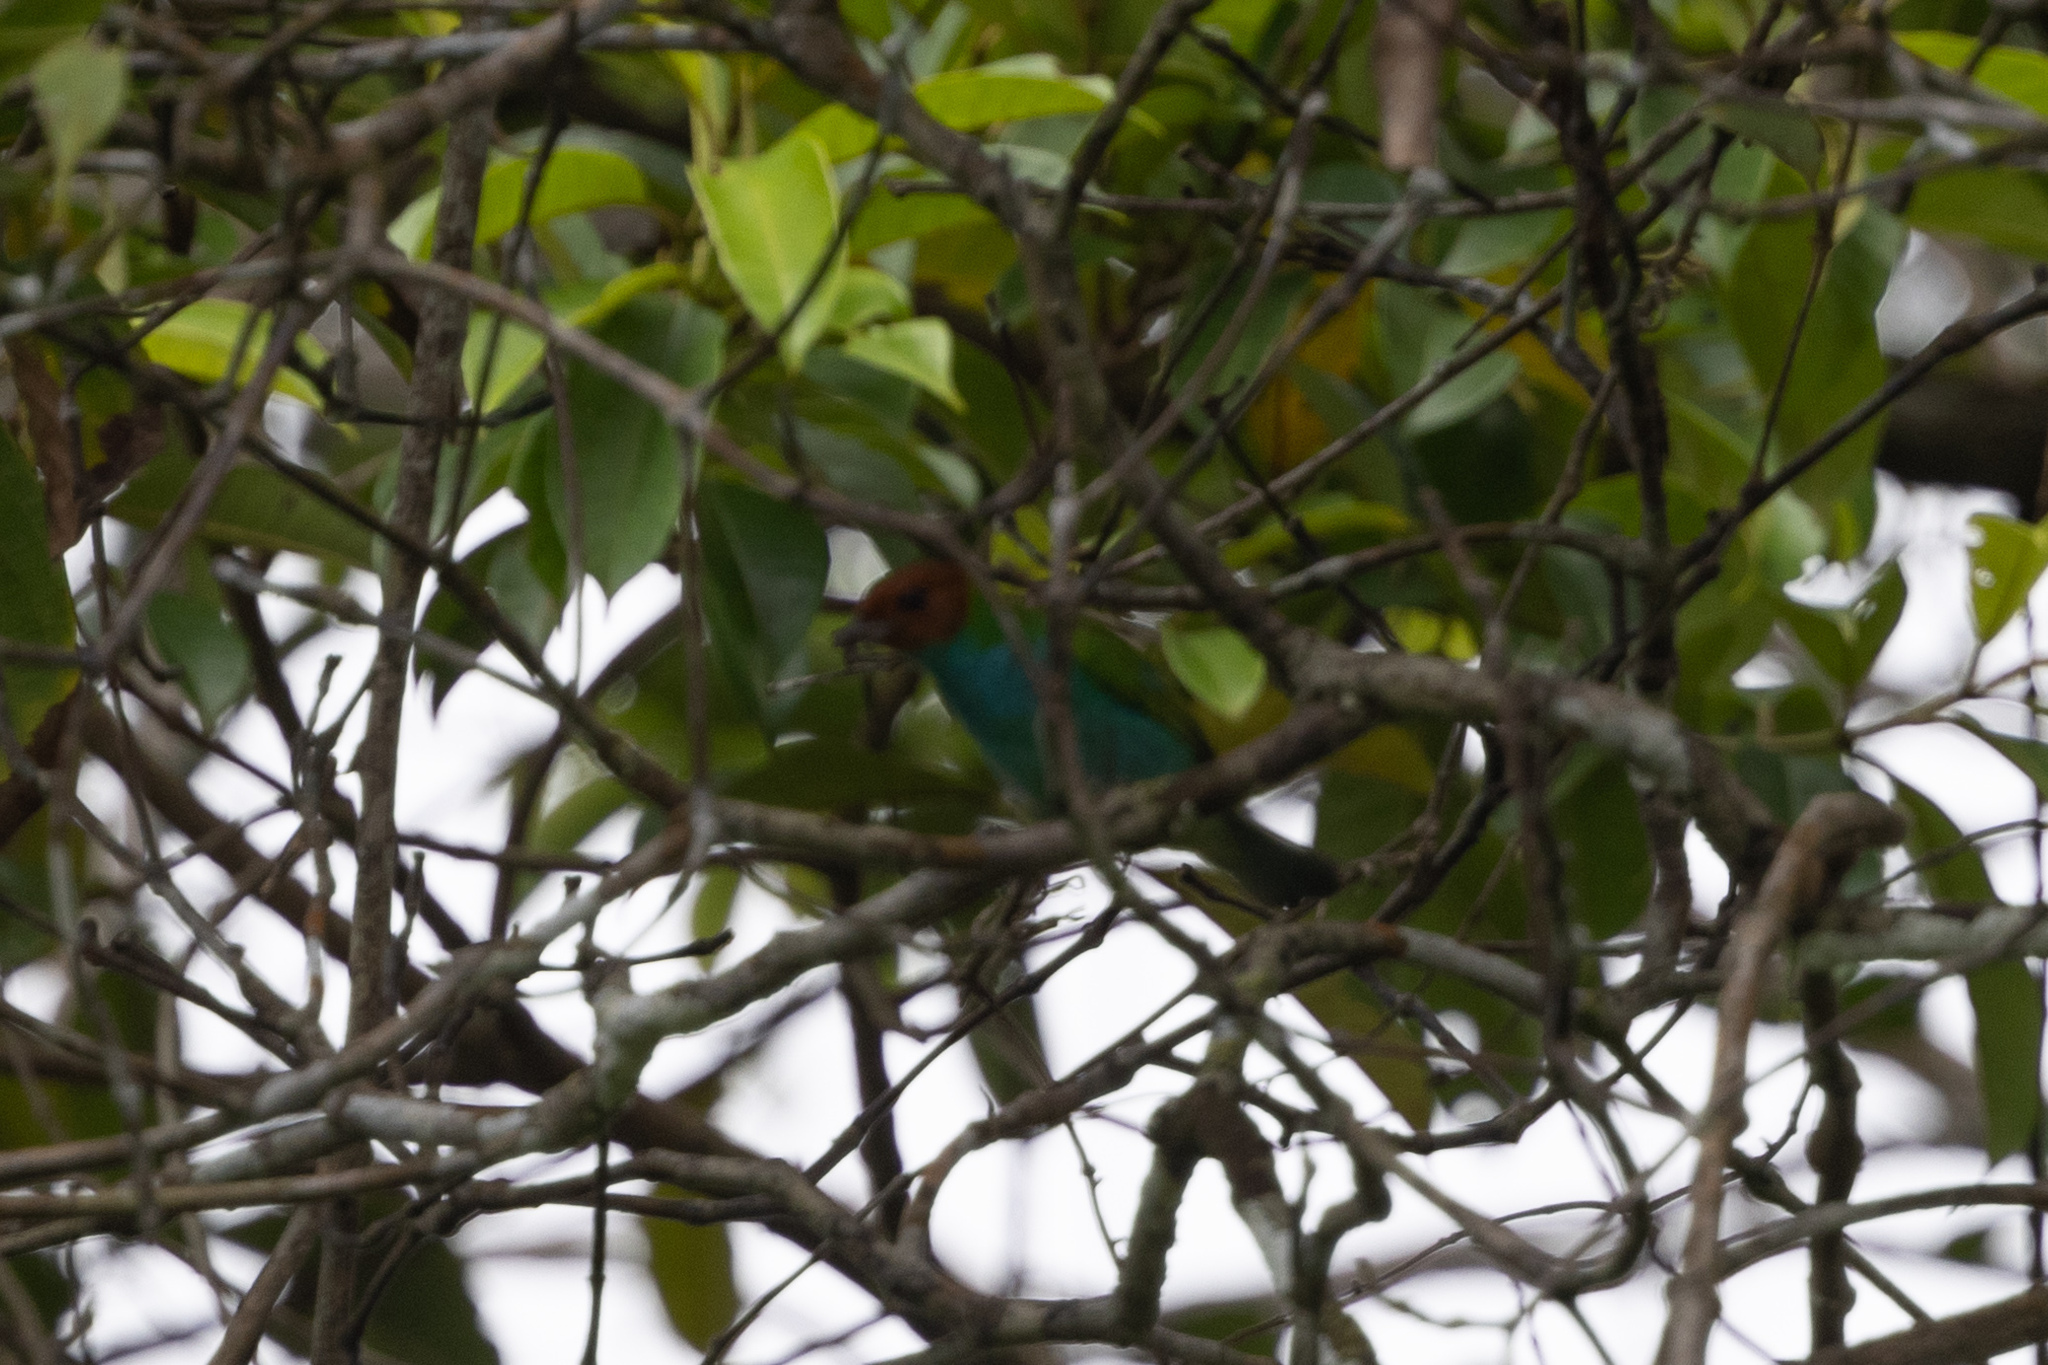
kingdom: Animalia
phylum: Chordata
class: Aves
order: Passeriformes
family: Thraupidae
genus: Tangara
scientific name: Tangara gyrola
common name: Bay-headed tanager
